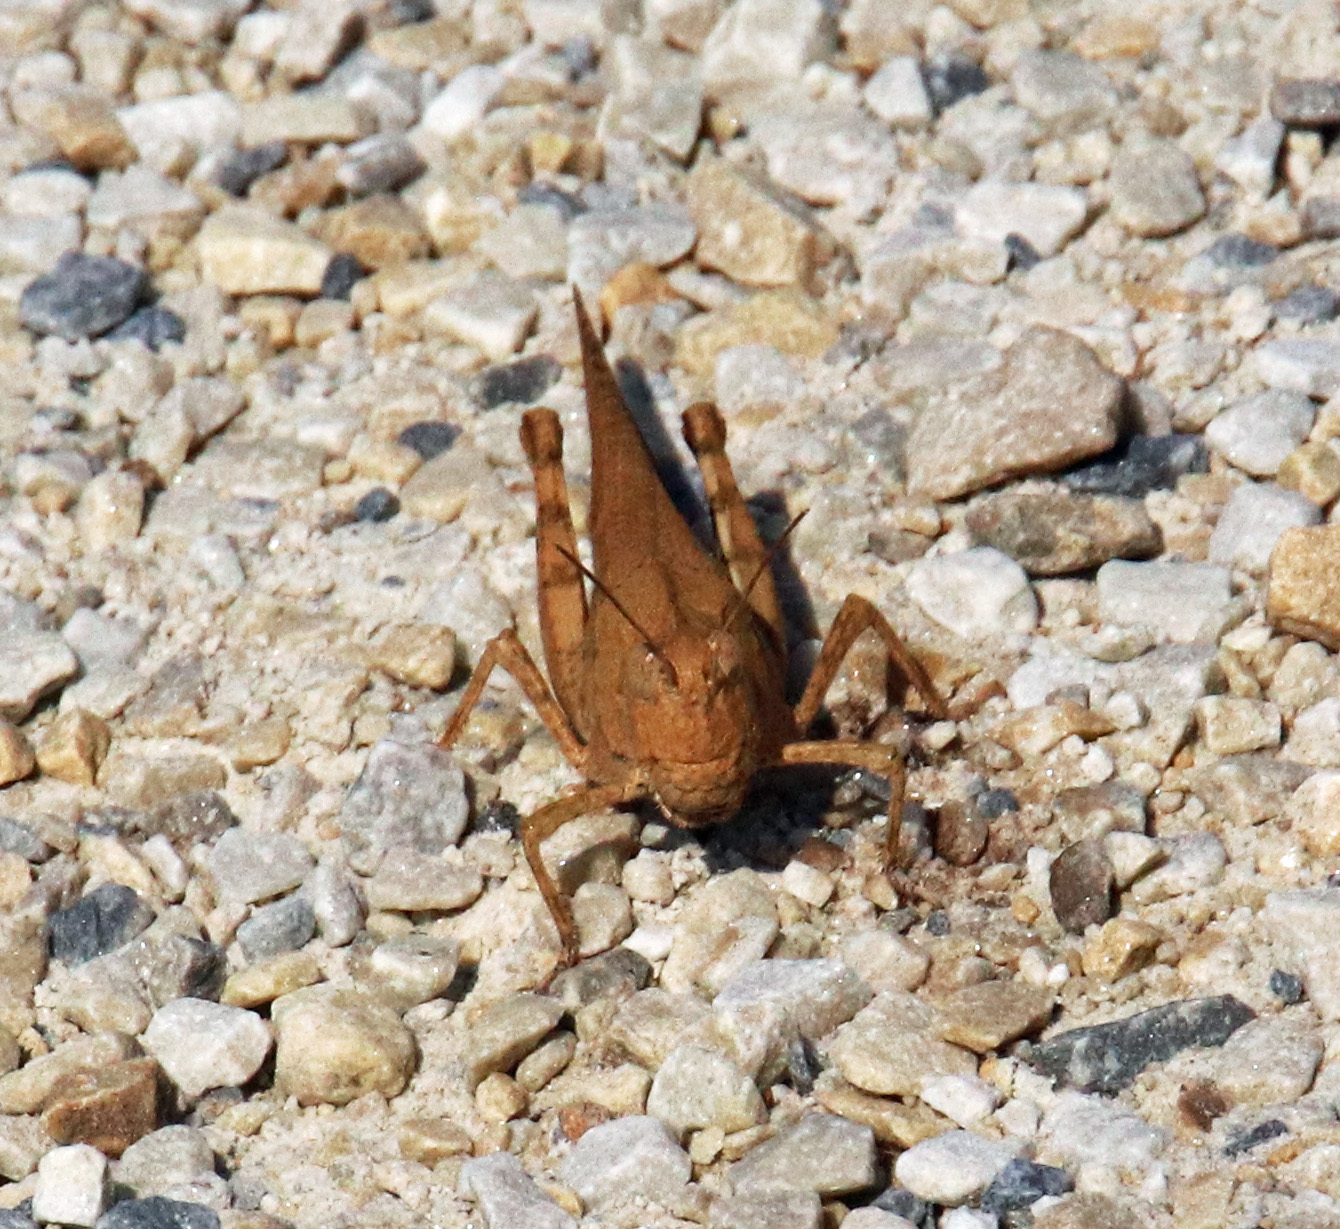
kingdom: Animalia
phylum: Arthropoda
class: Insecta
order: Orthoptera
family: Acrididae
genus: Dissosteira
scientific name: Dissosteira carolina
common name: Carolina grasshopper
